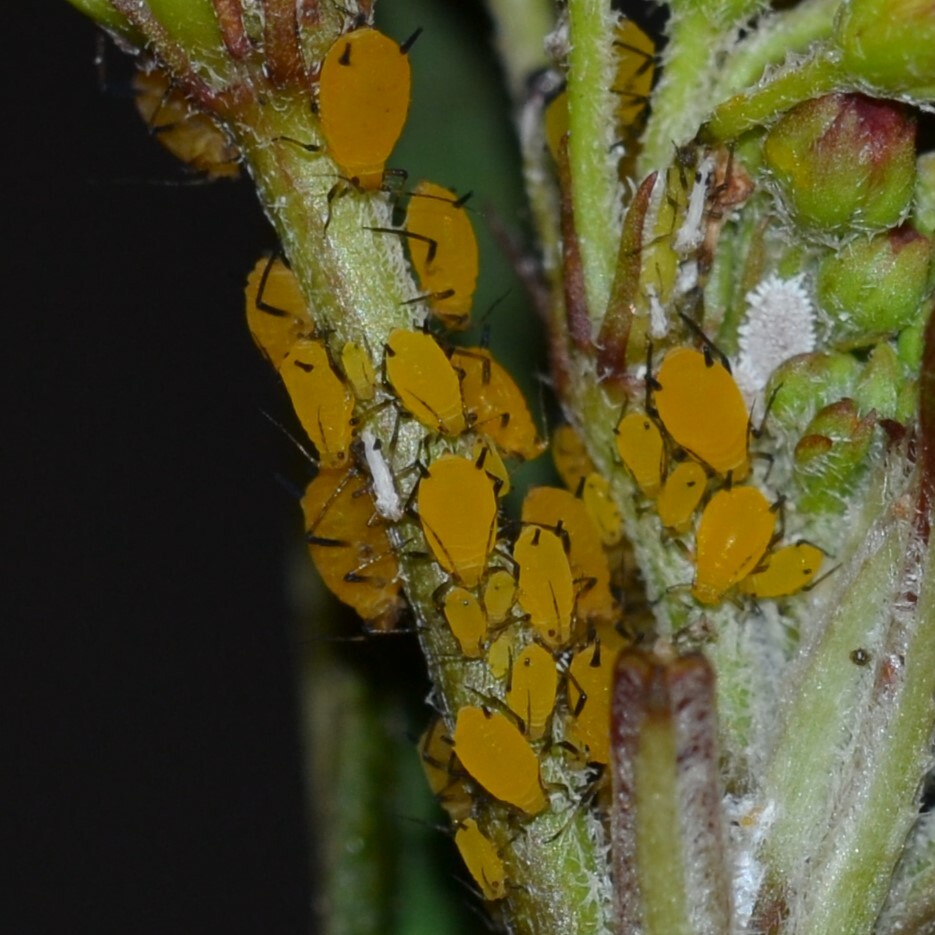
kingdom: Animalia
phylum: Arthropoda
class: Insecta
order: Hemiptera
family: Aphididae
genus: Aphis
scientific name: Aphis nerii
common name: Oleander aphid
